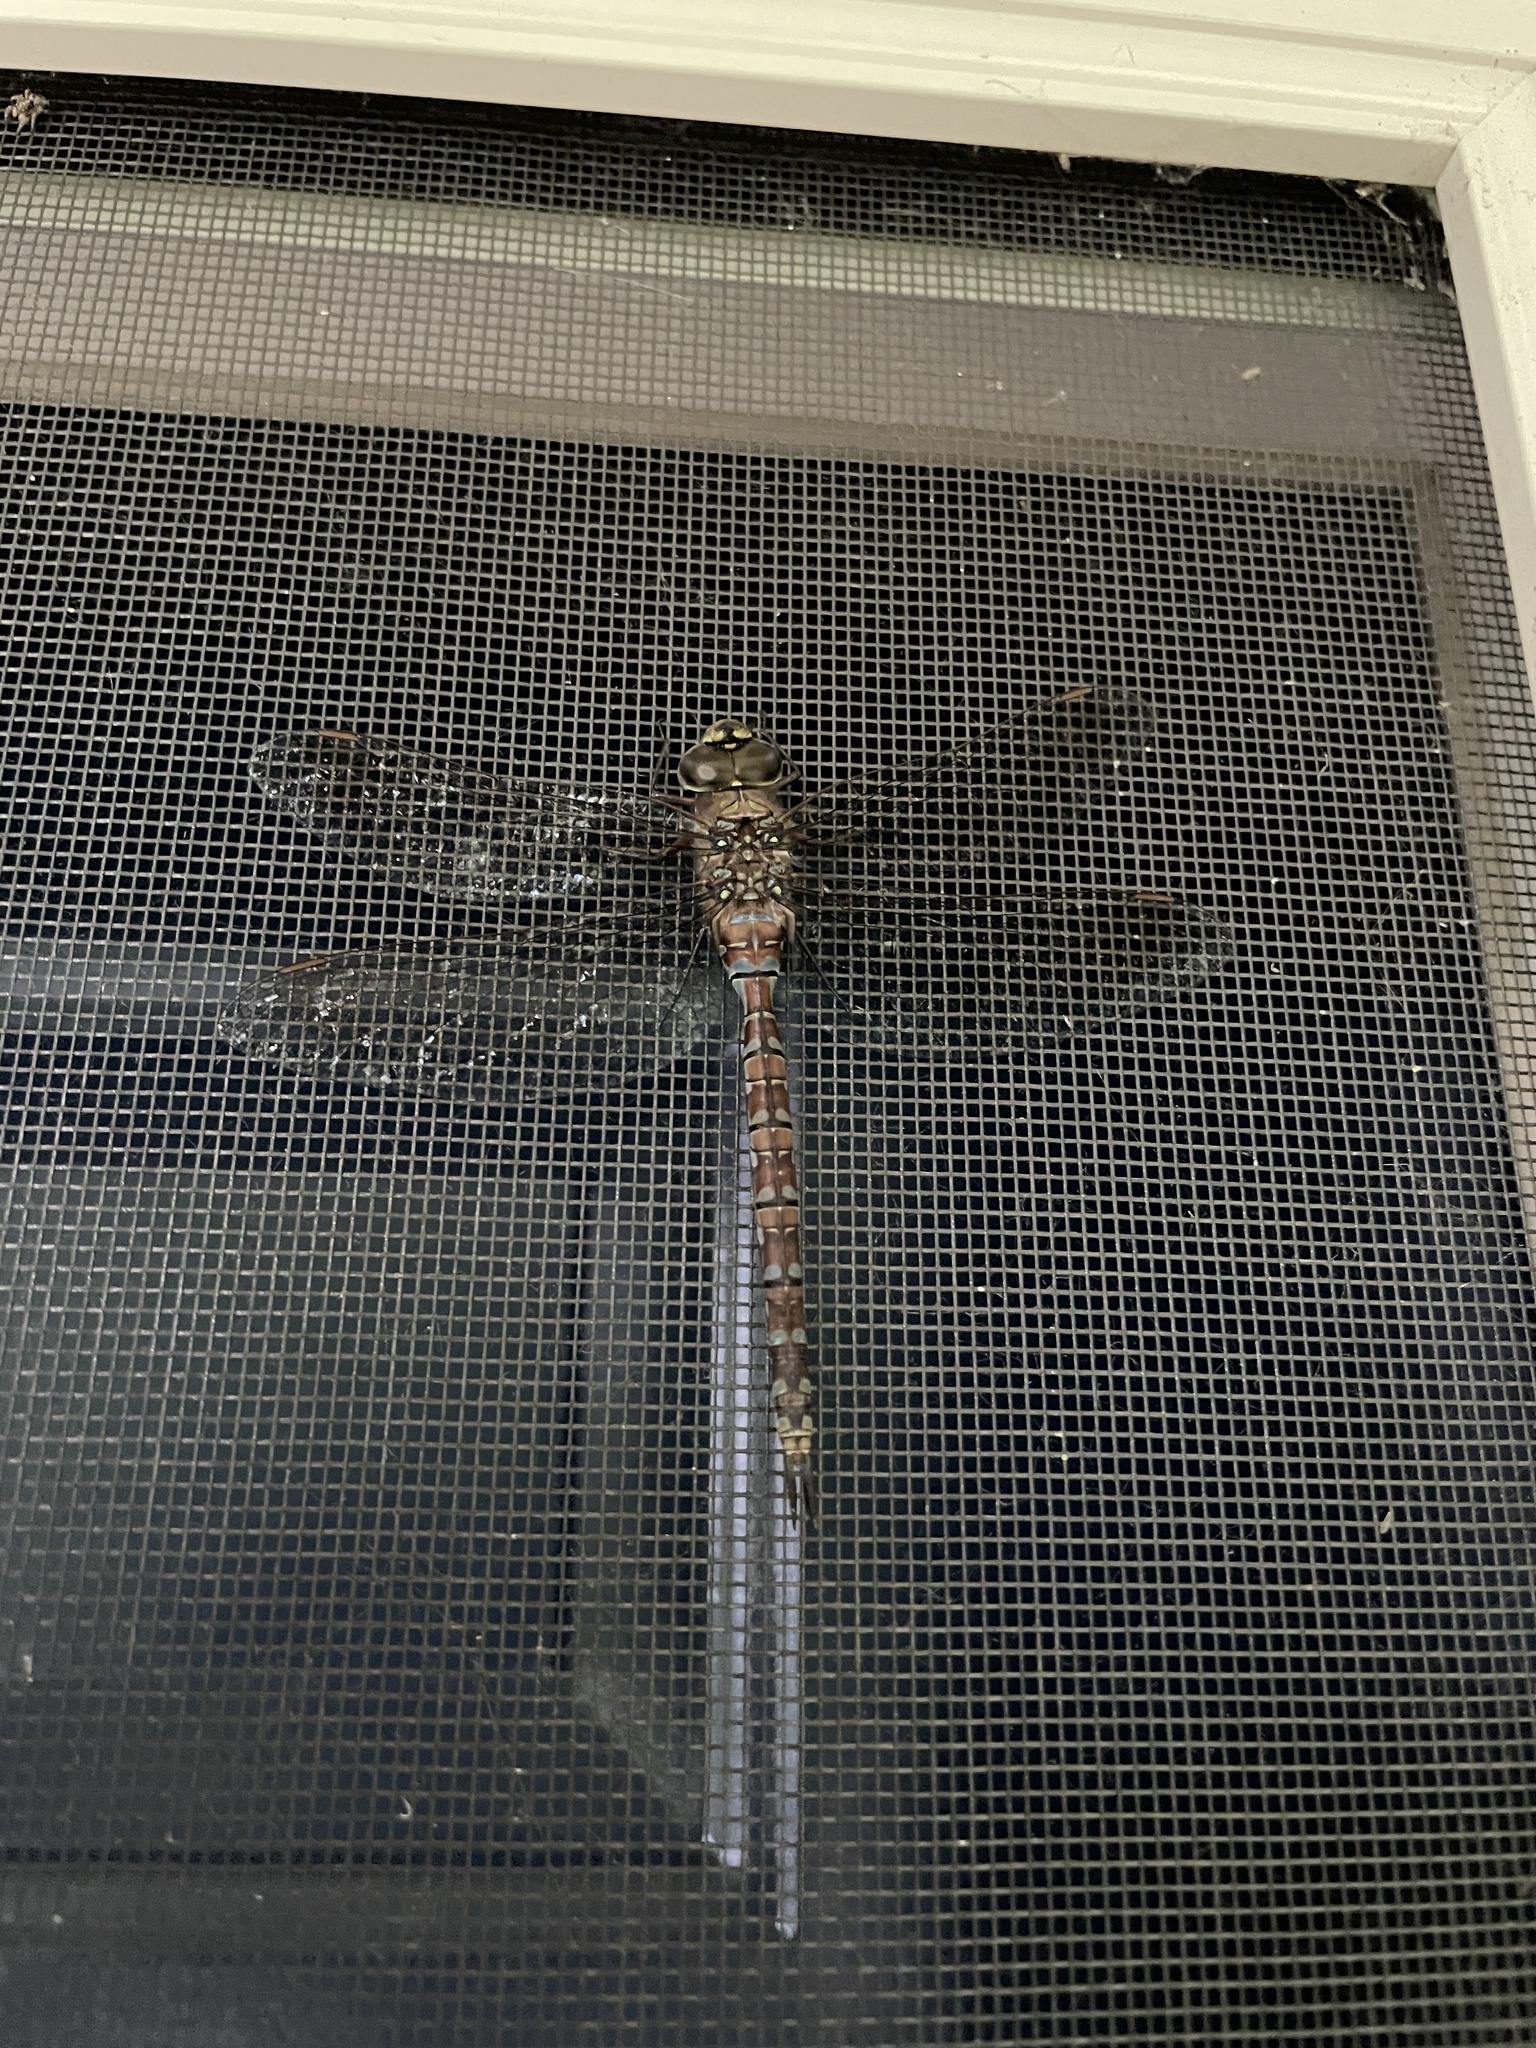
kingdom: Animalia
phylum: Arthropoda
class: Insecta
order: Odonata
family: Aeshnidae
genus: Aeshna
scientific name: Aeshna canadensis
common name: Canada darner
